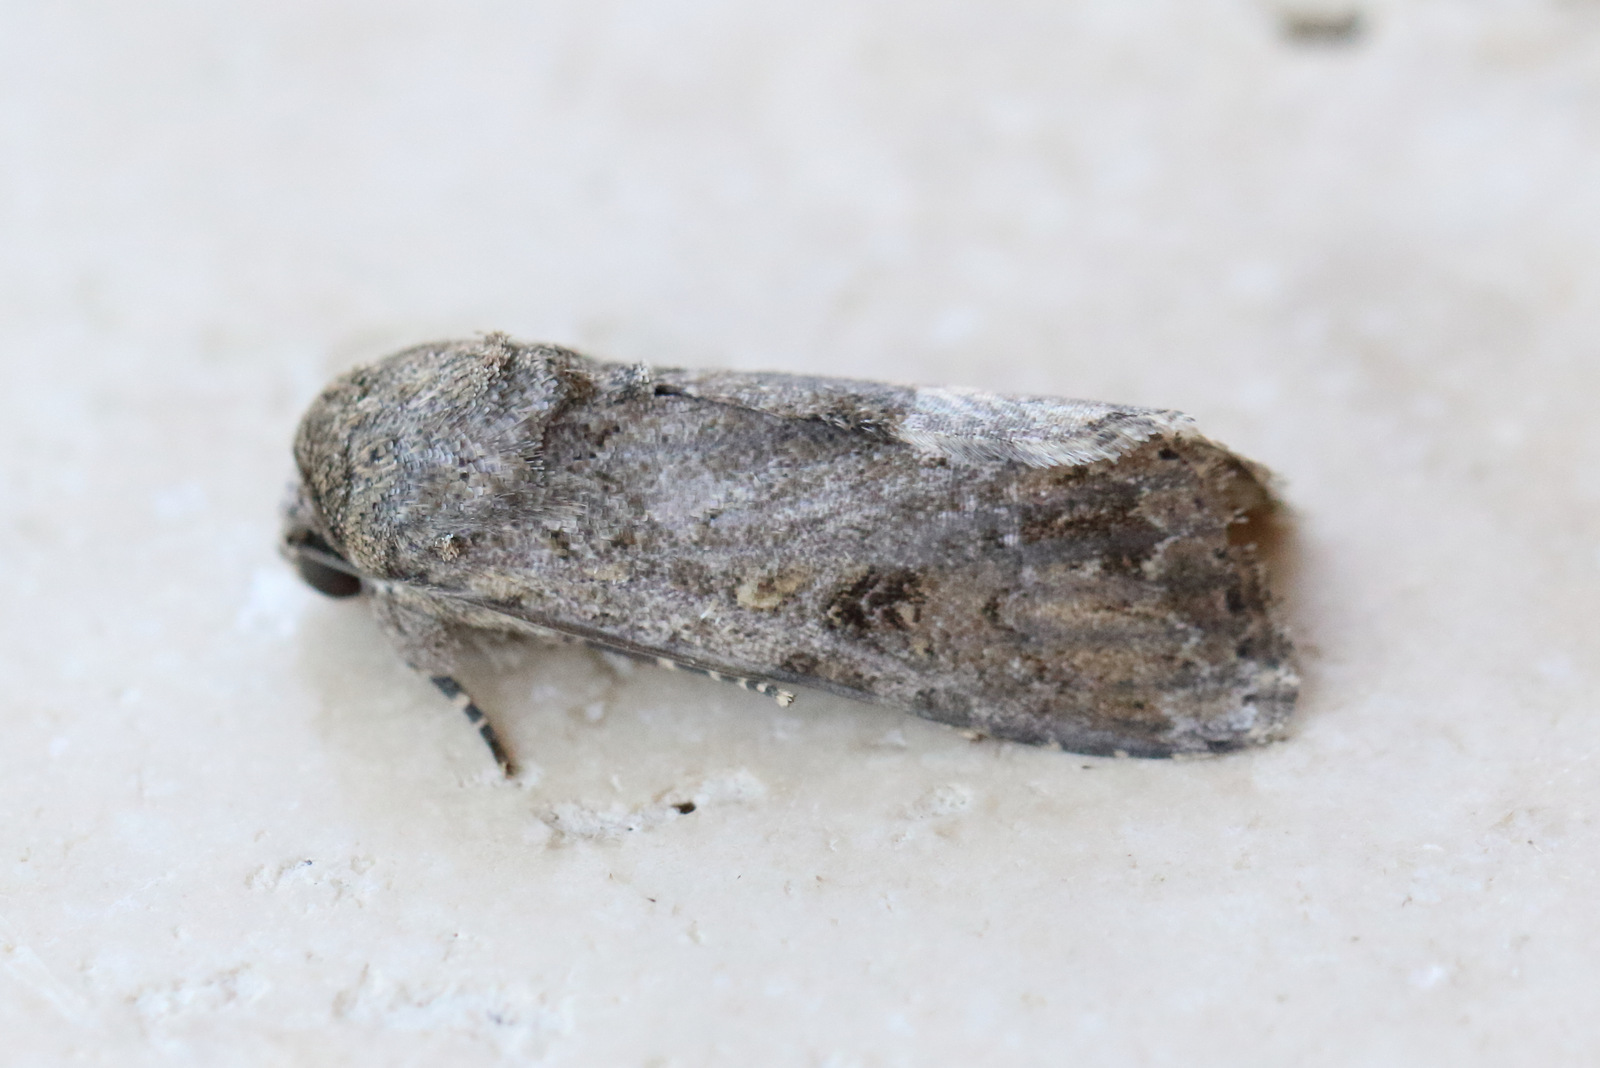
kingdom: Animalia
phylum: Arthropoda
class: Insecta
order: Lepidoptera
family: Noctuidae
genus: Spodoptera
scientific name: Spodoptera mauritia
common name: Lawn armyworm
